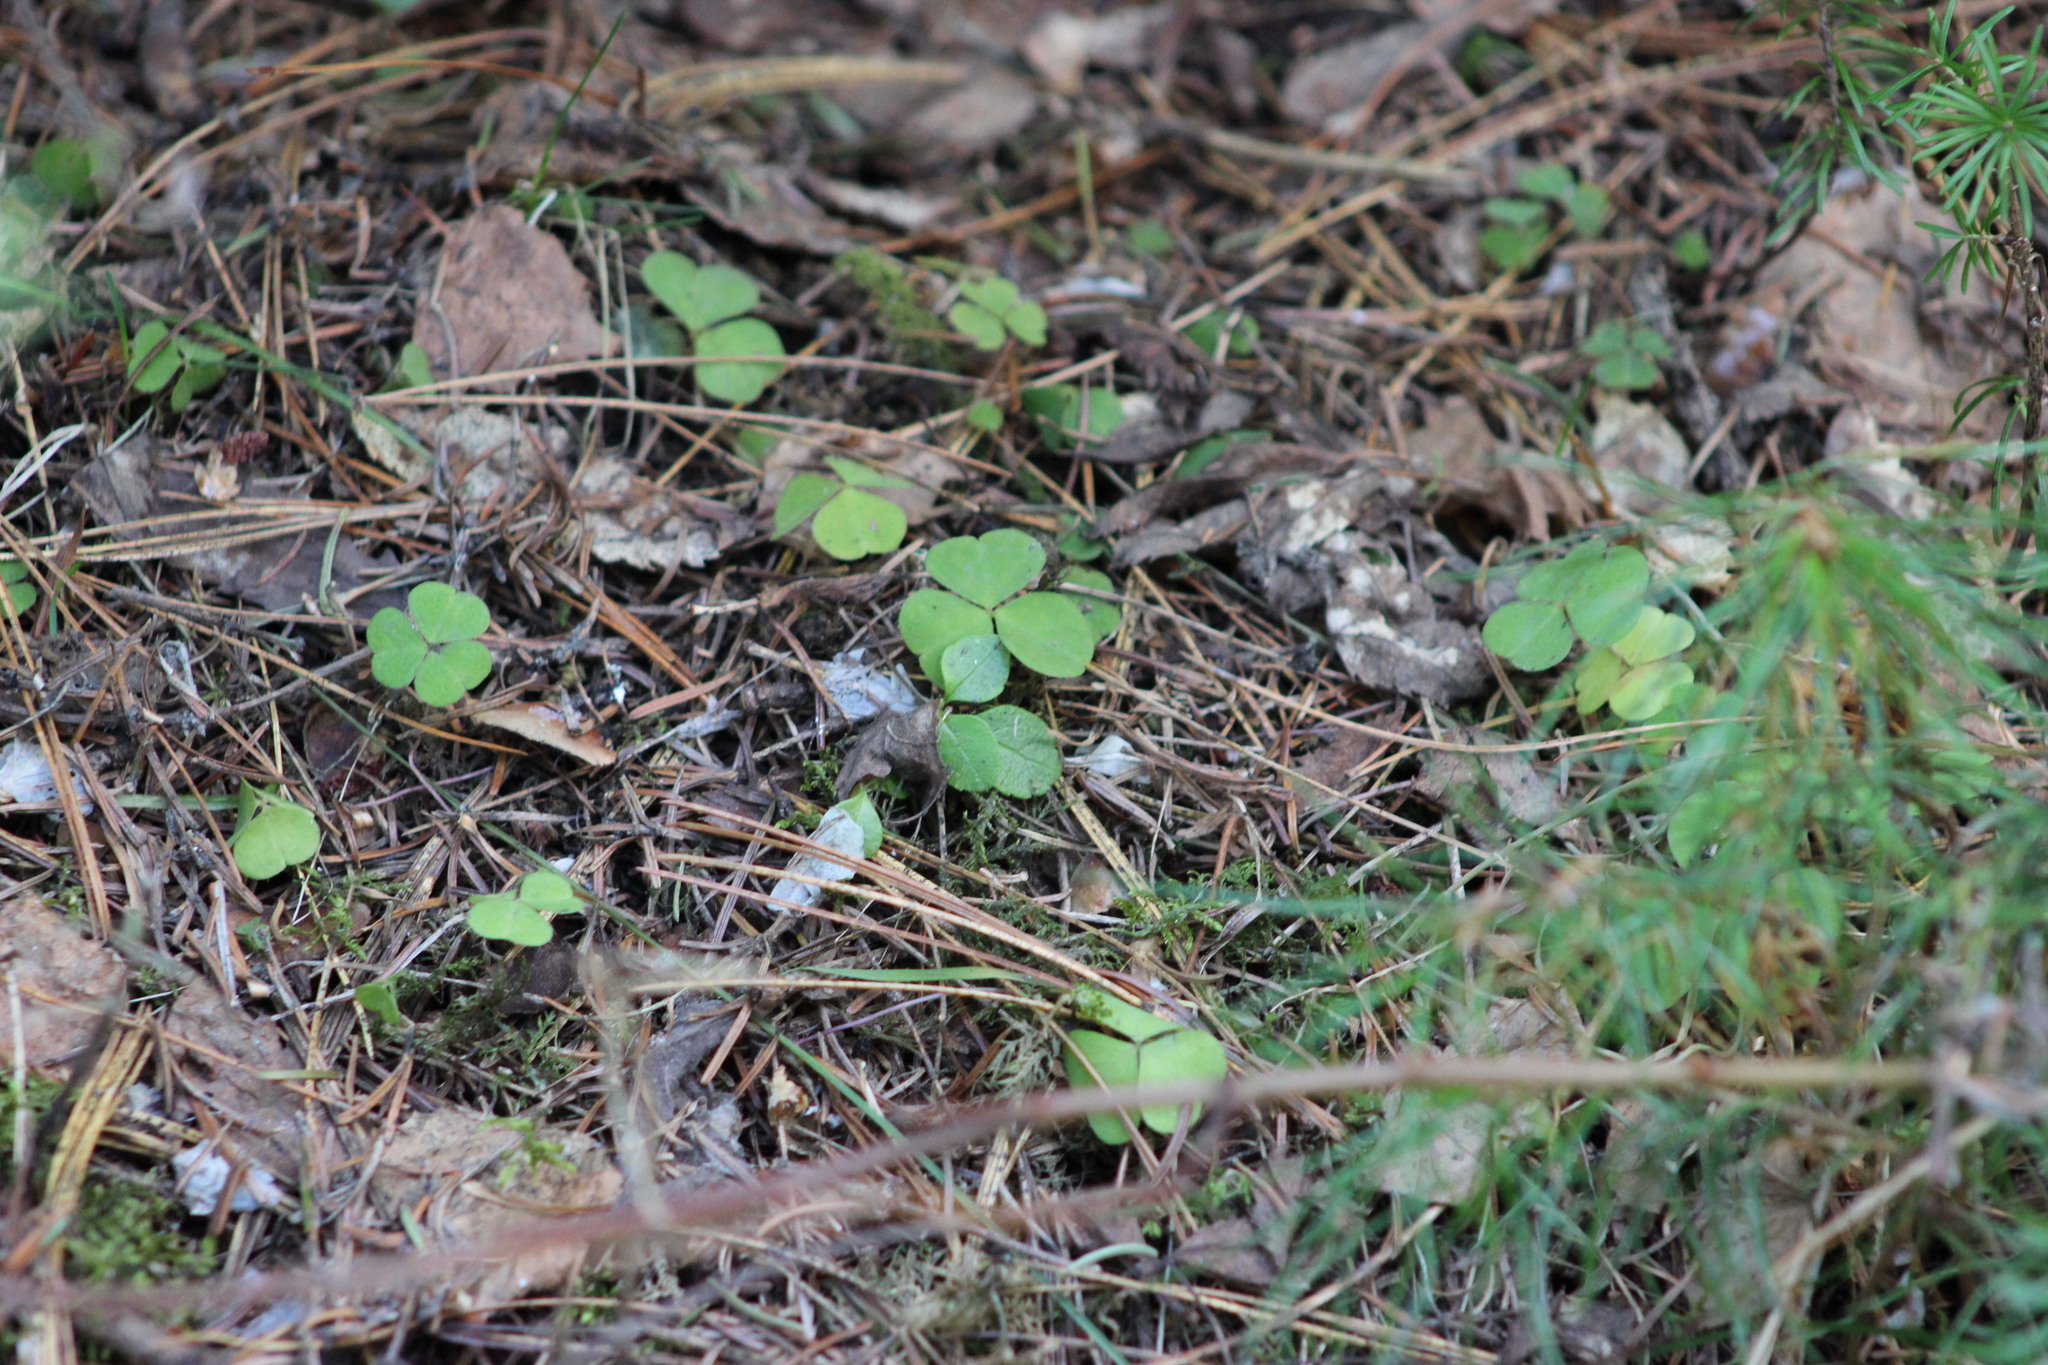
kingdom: Plantae
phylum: Tracheophyta
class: Magnoliopsida
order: Oxalidales
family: Oxalidaceae
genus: Oxalis
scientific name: Oxalis acetosella
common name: Wood-sorrel
